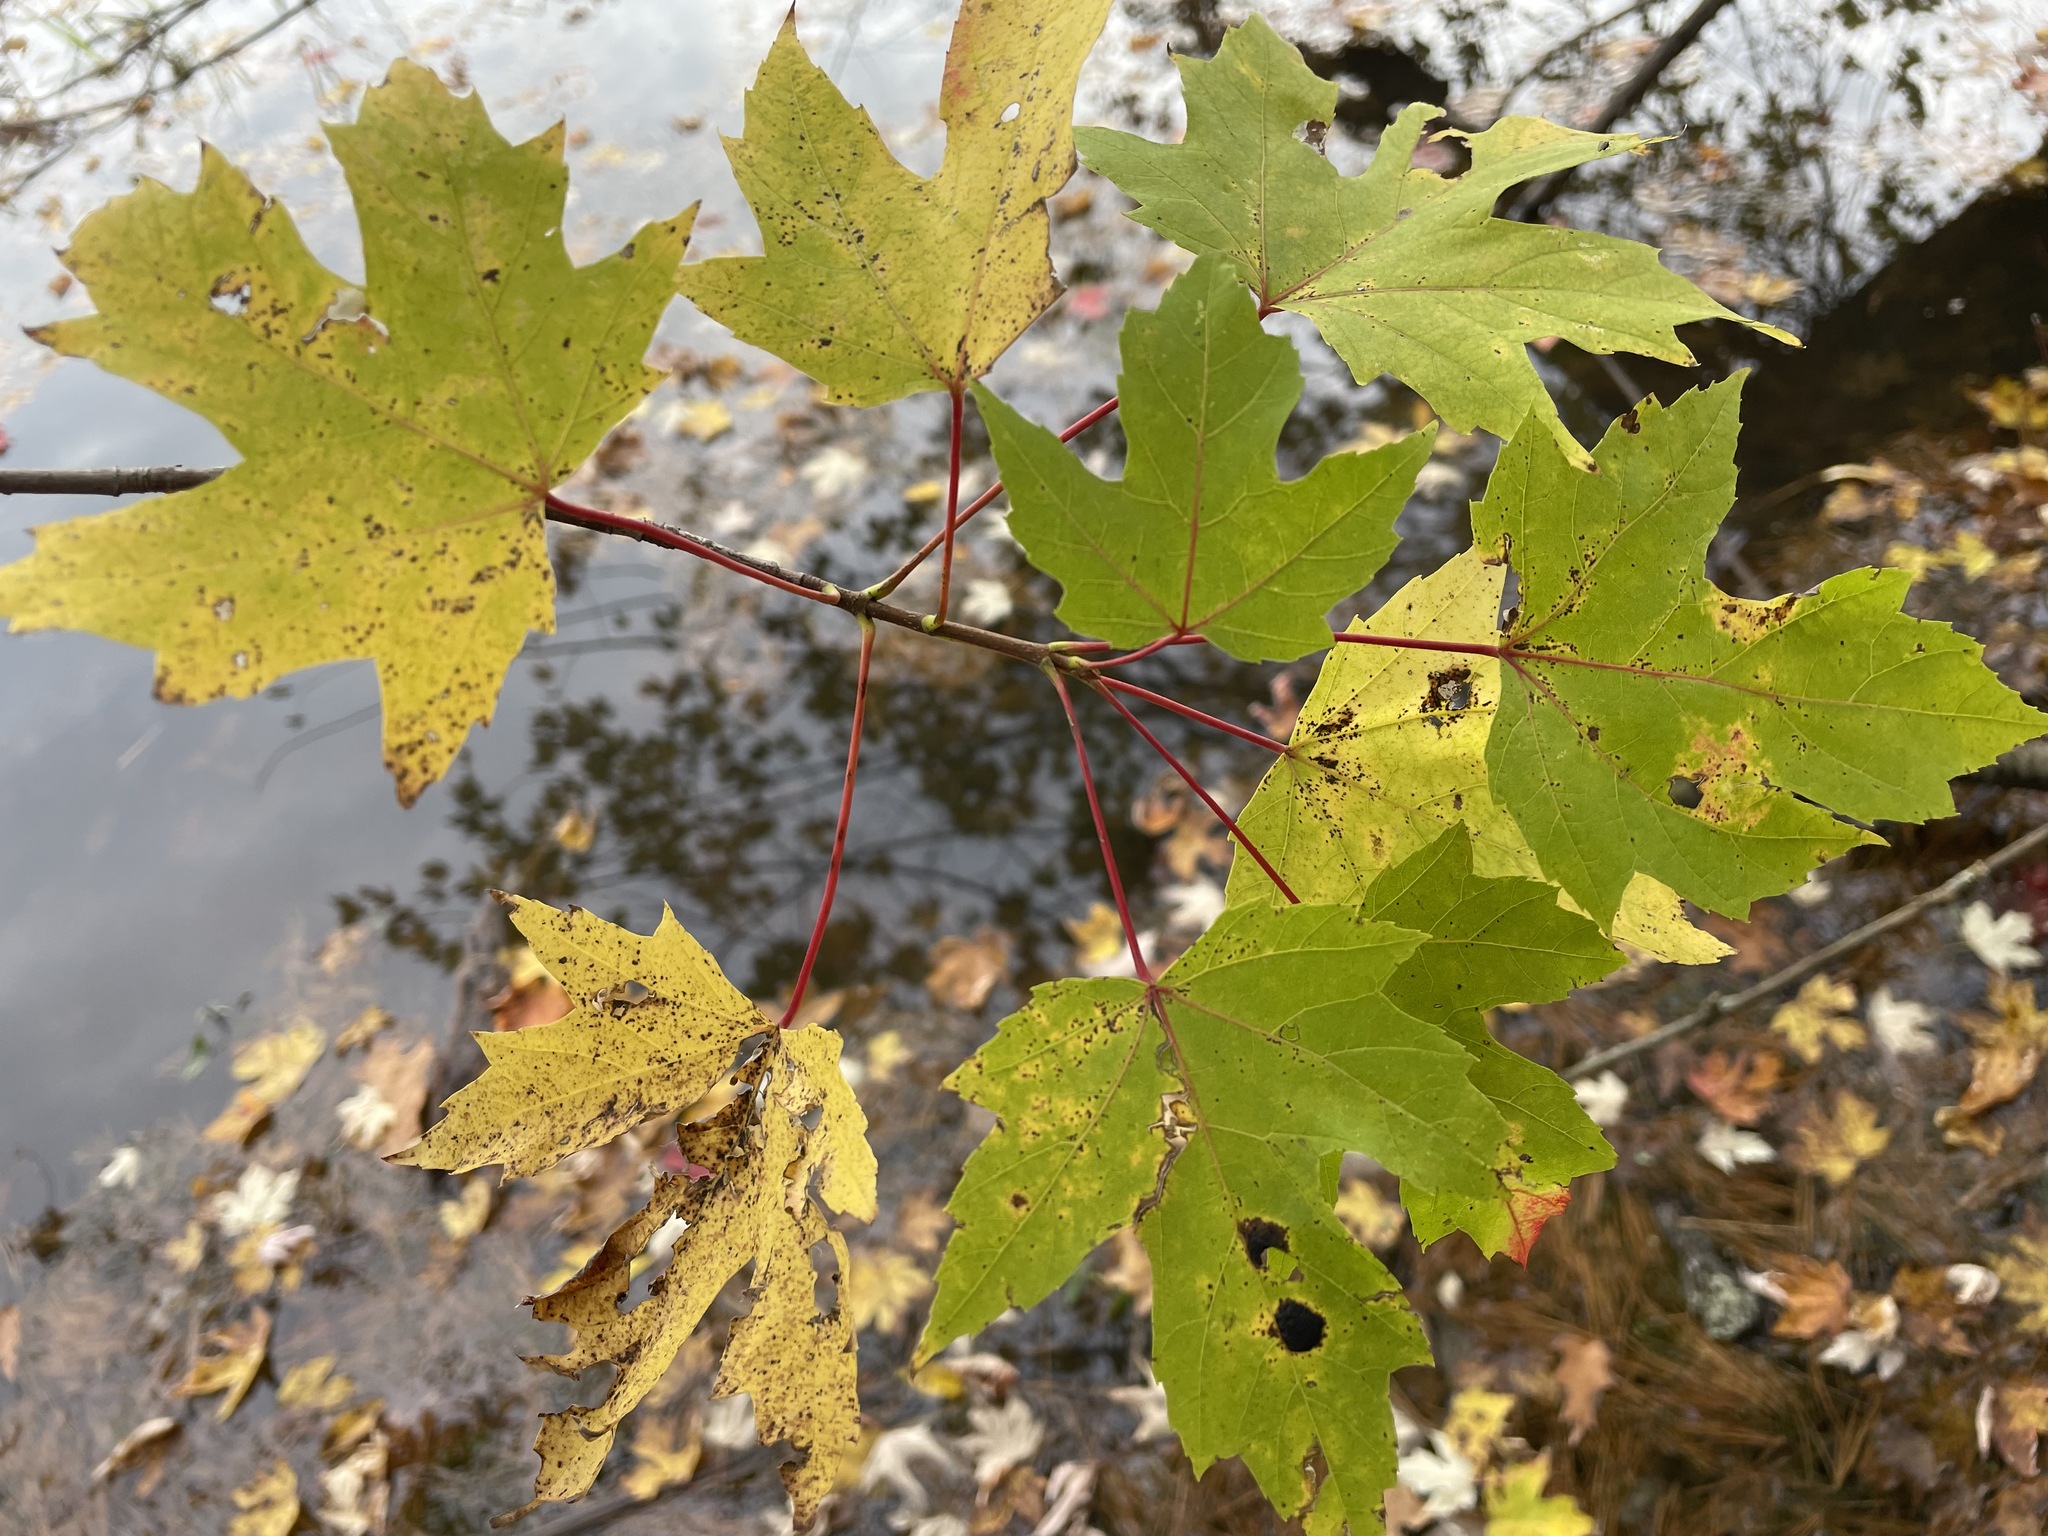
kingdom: Plantae
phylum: Tracheophyta
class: Magnoliopsida
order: Sapindales
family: Sapindaceae
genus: Acer
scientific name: Acer saccharinum
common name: Silver maple
